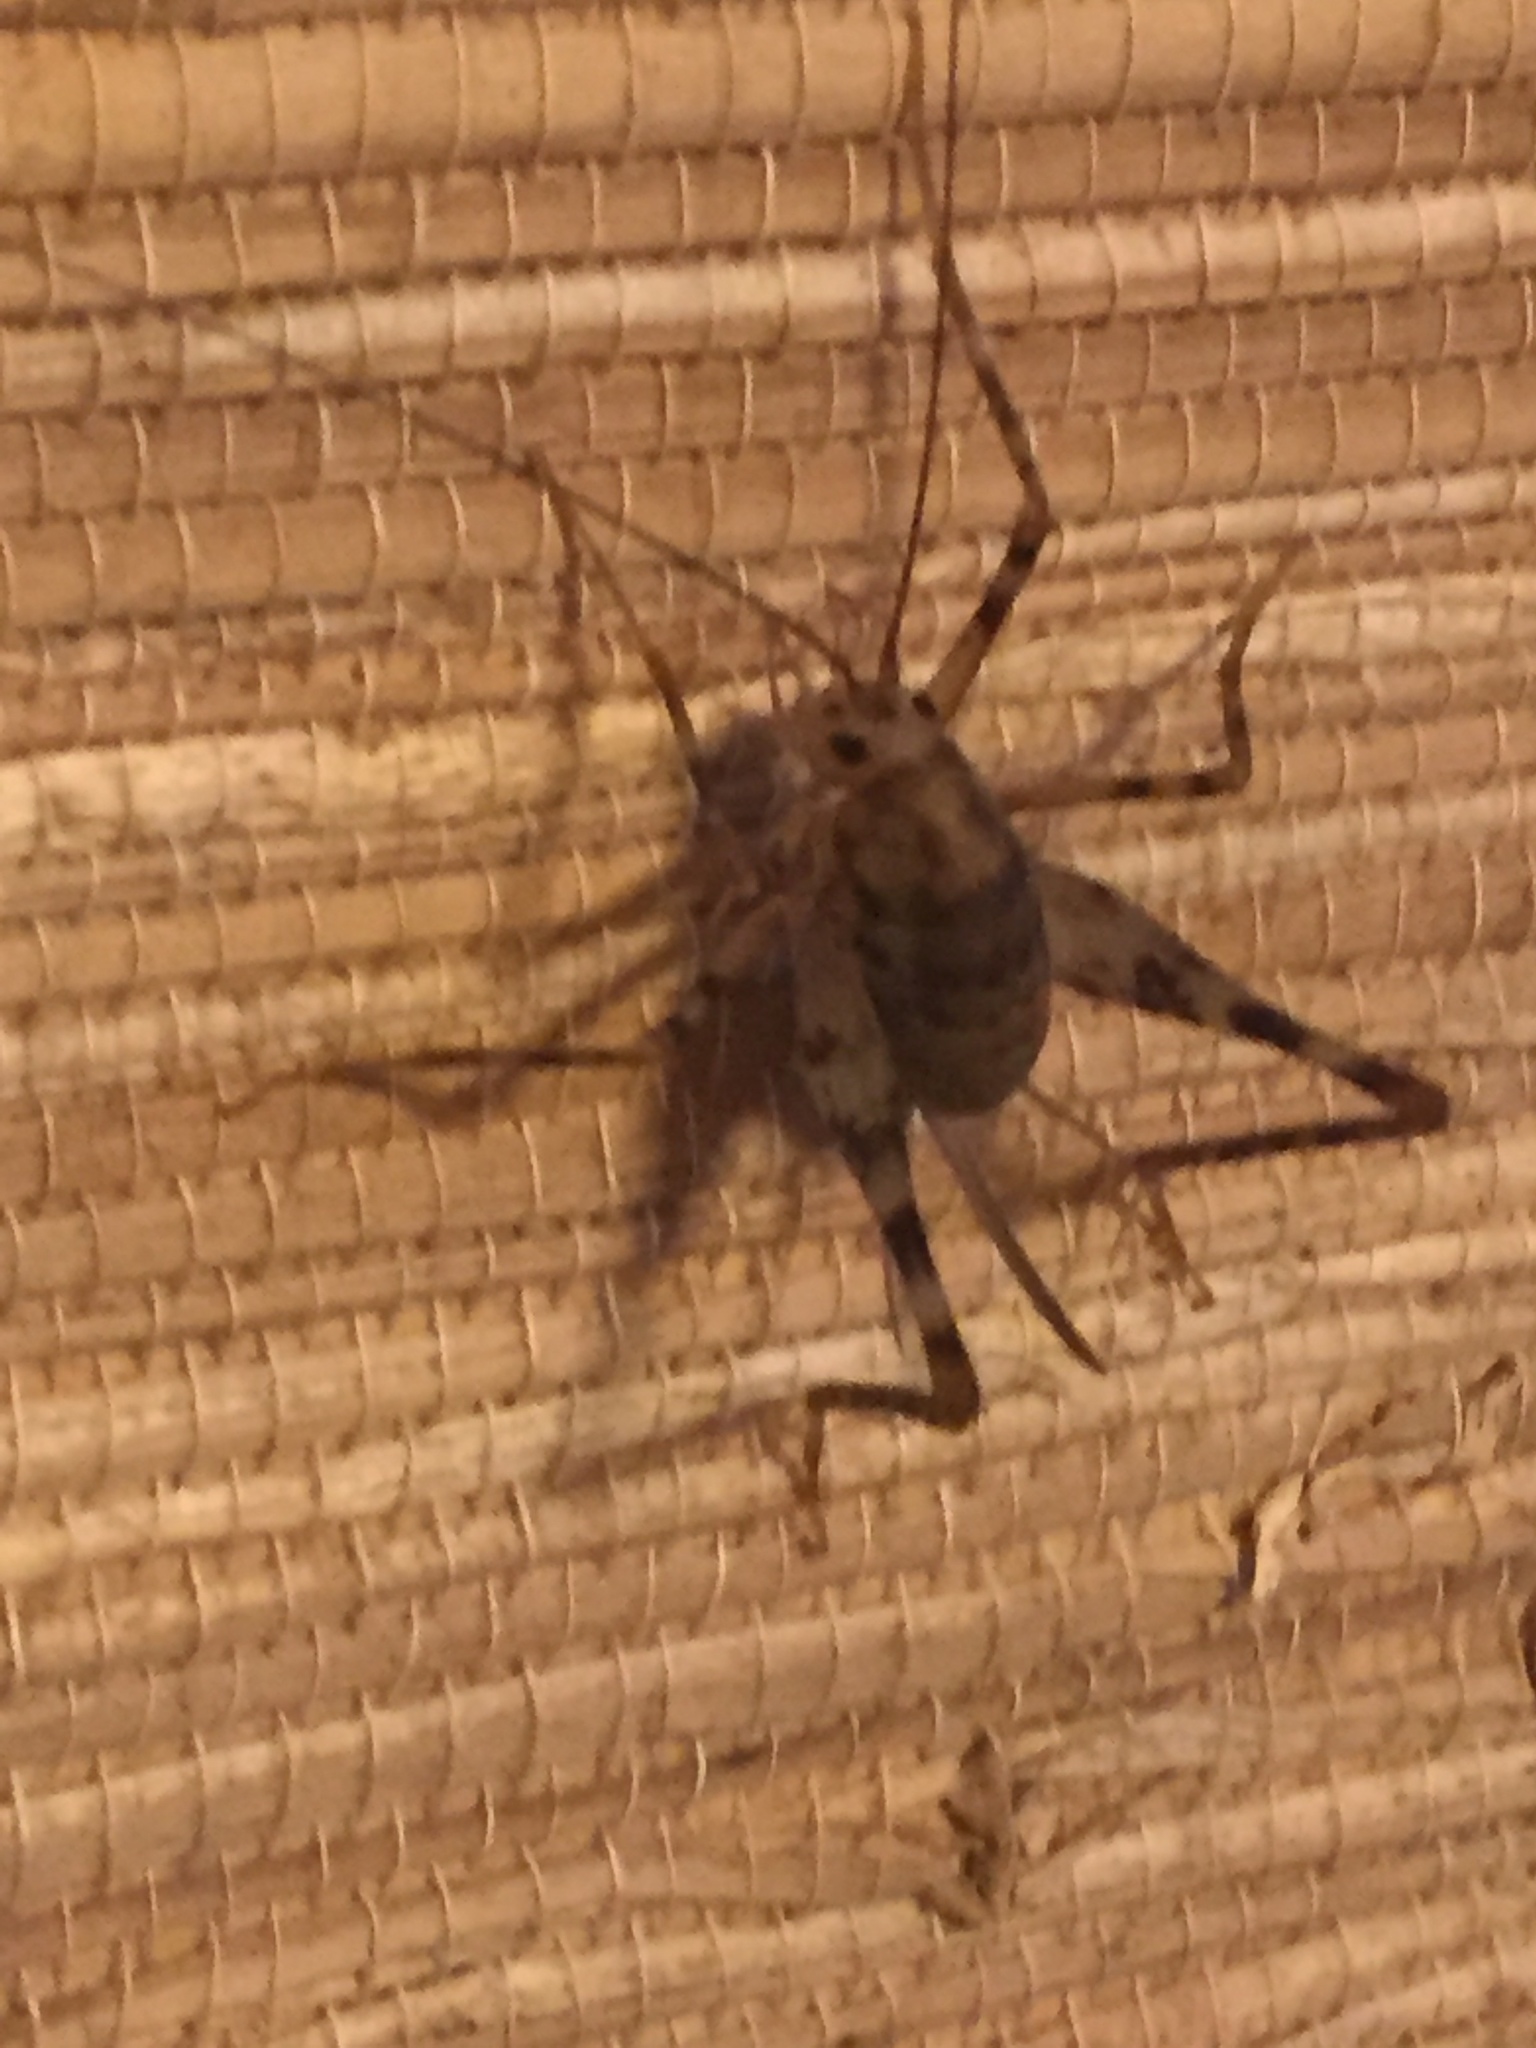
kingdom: Animalia
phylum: Arthropoda
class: Insecta
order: Orthoptera
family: Rhaphidophoridae
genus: Tachycines
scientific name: Tachycines asynamorus
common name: Greenhouse camel cricket
